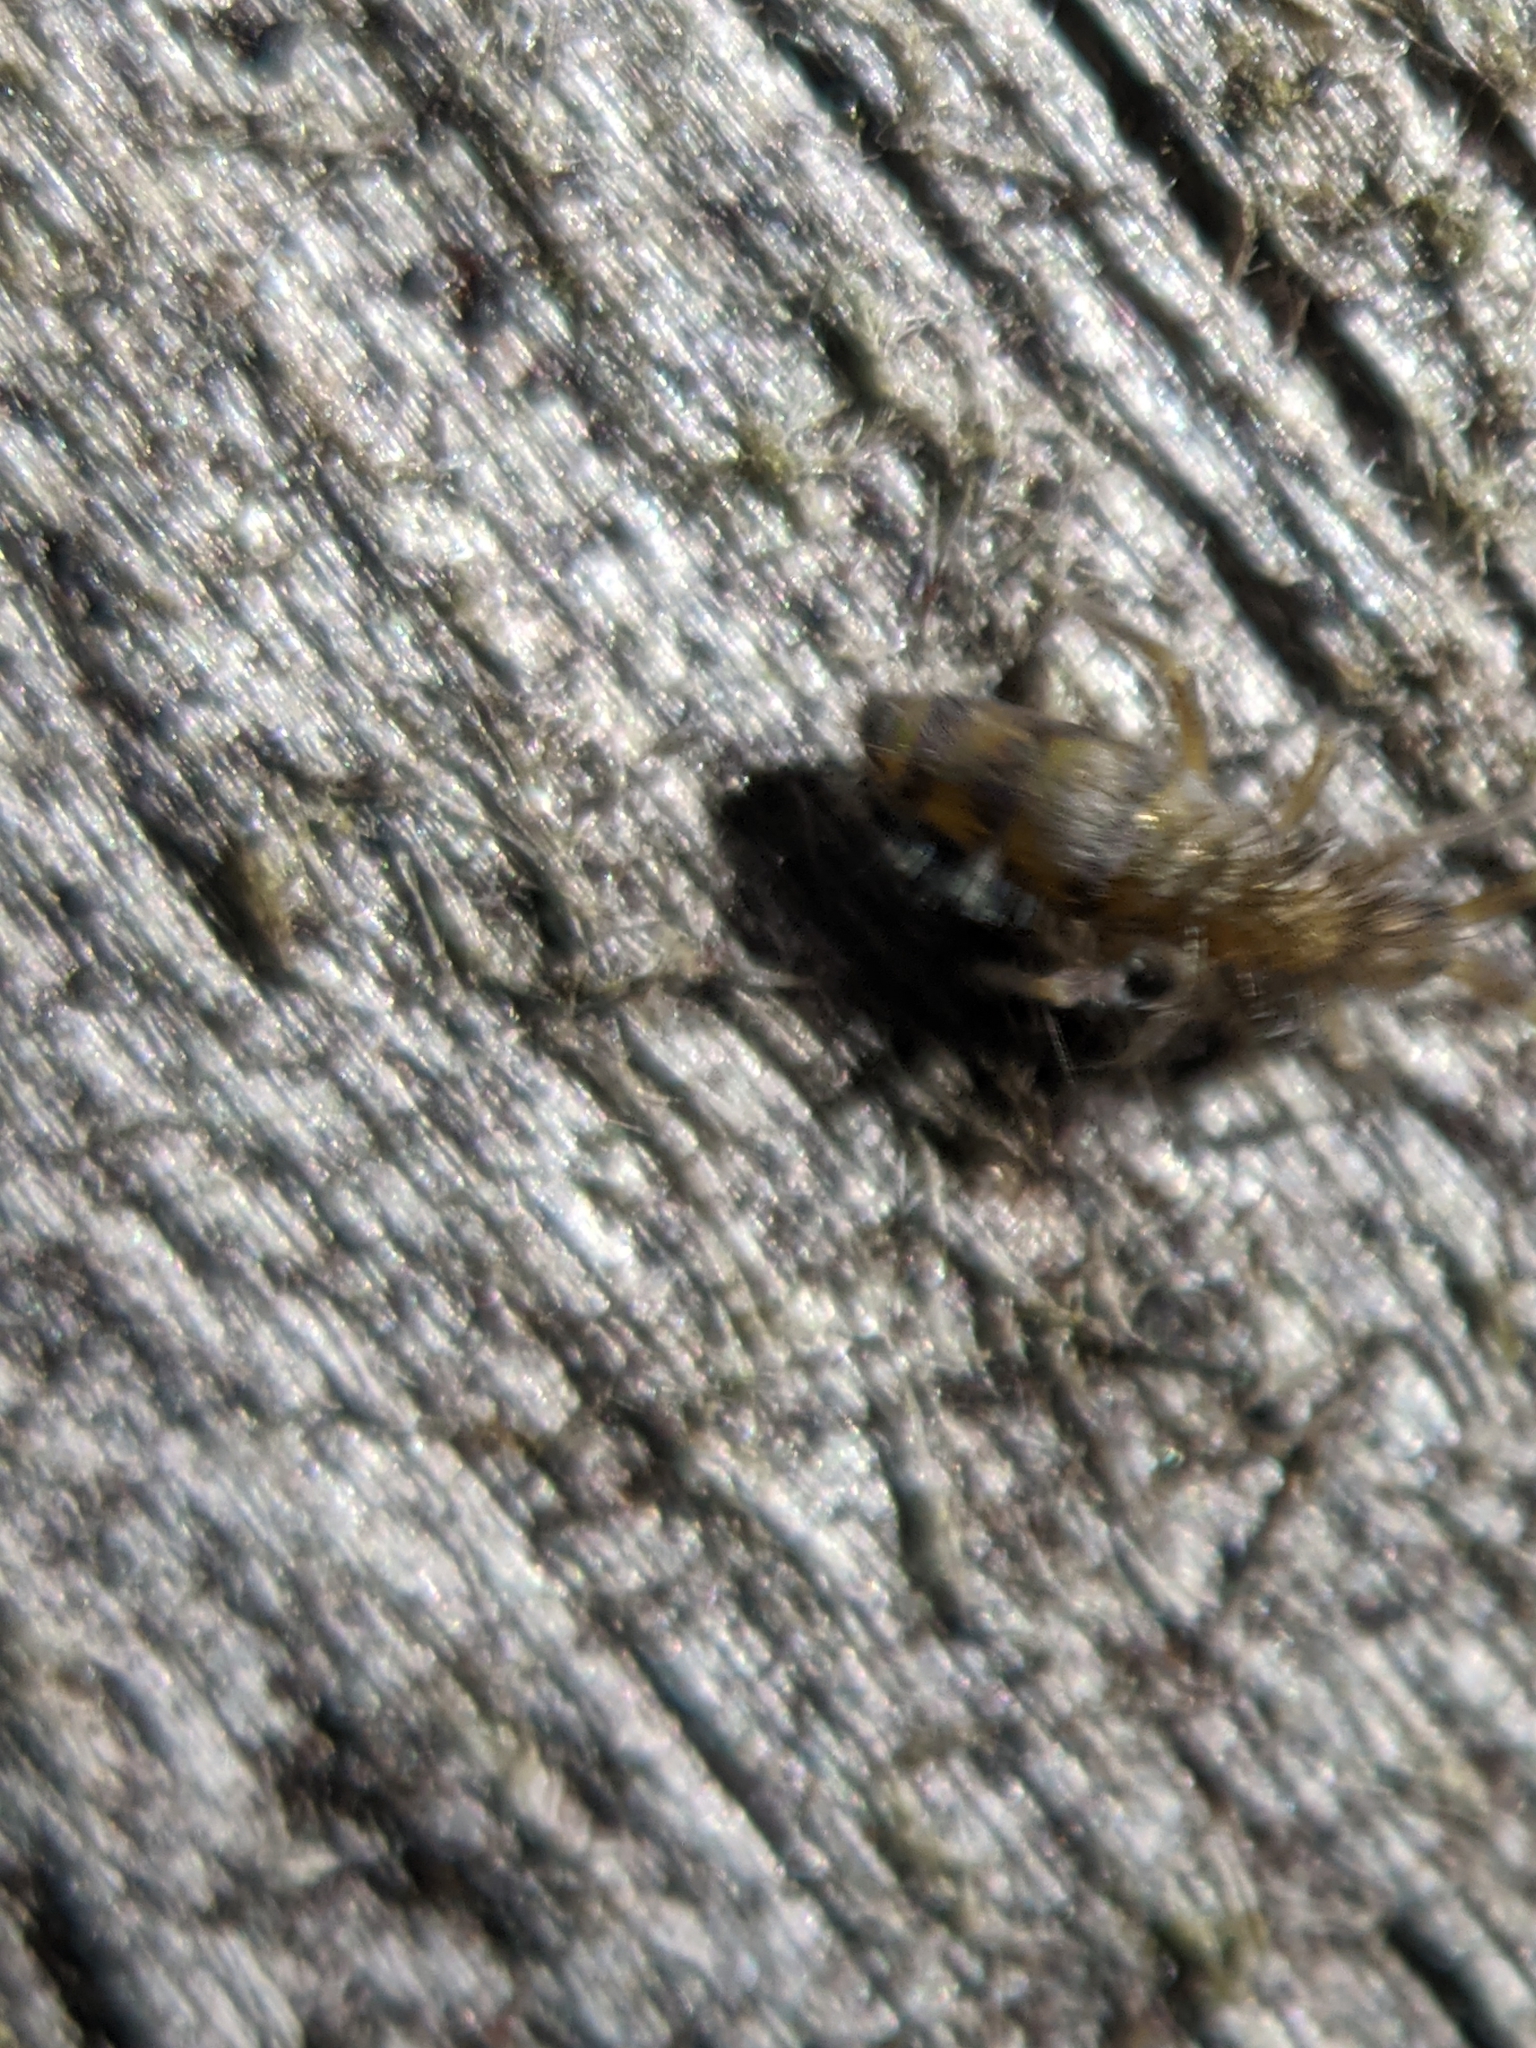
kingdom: Animalia
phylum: Arthropoda
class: Collembola
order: Entomobryomorpha
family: Entomobryidae
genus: Homidia
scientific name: Homidia sauteri
